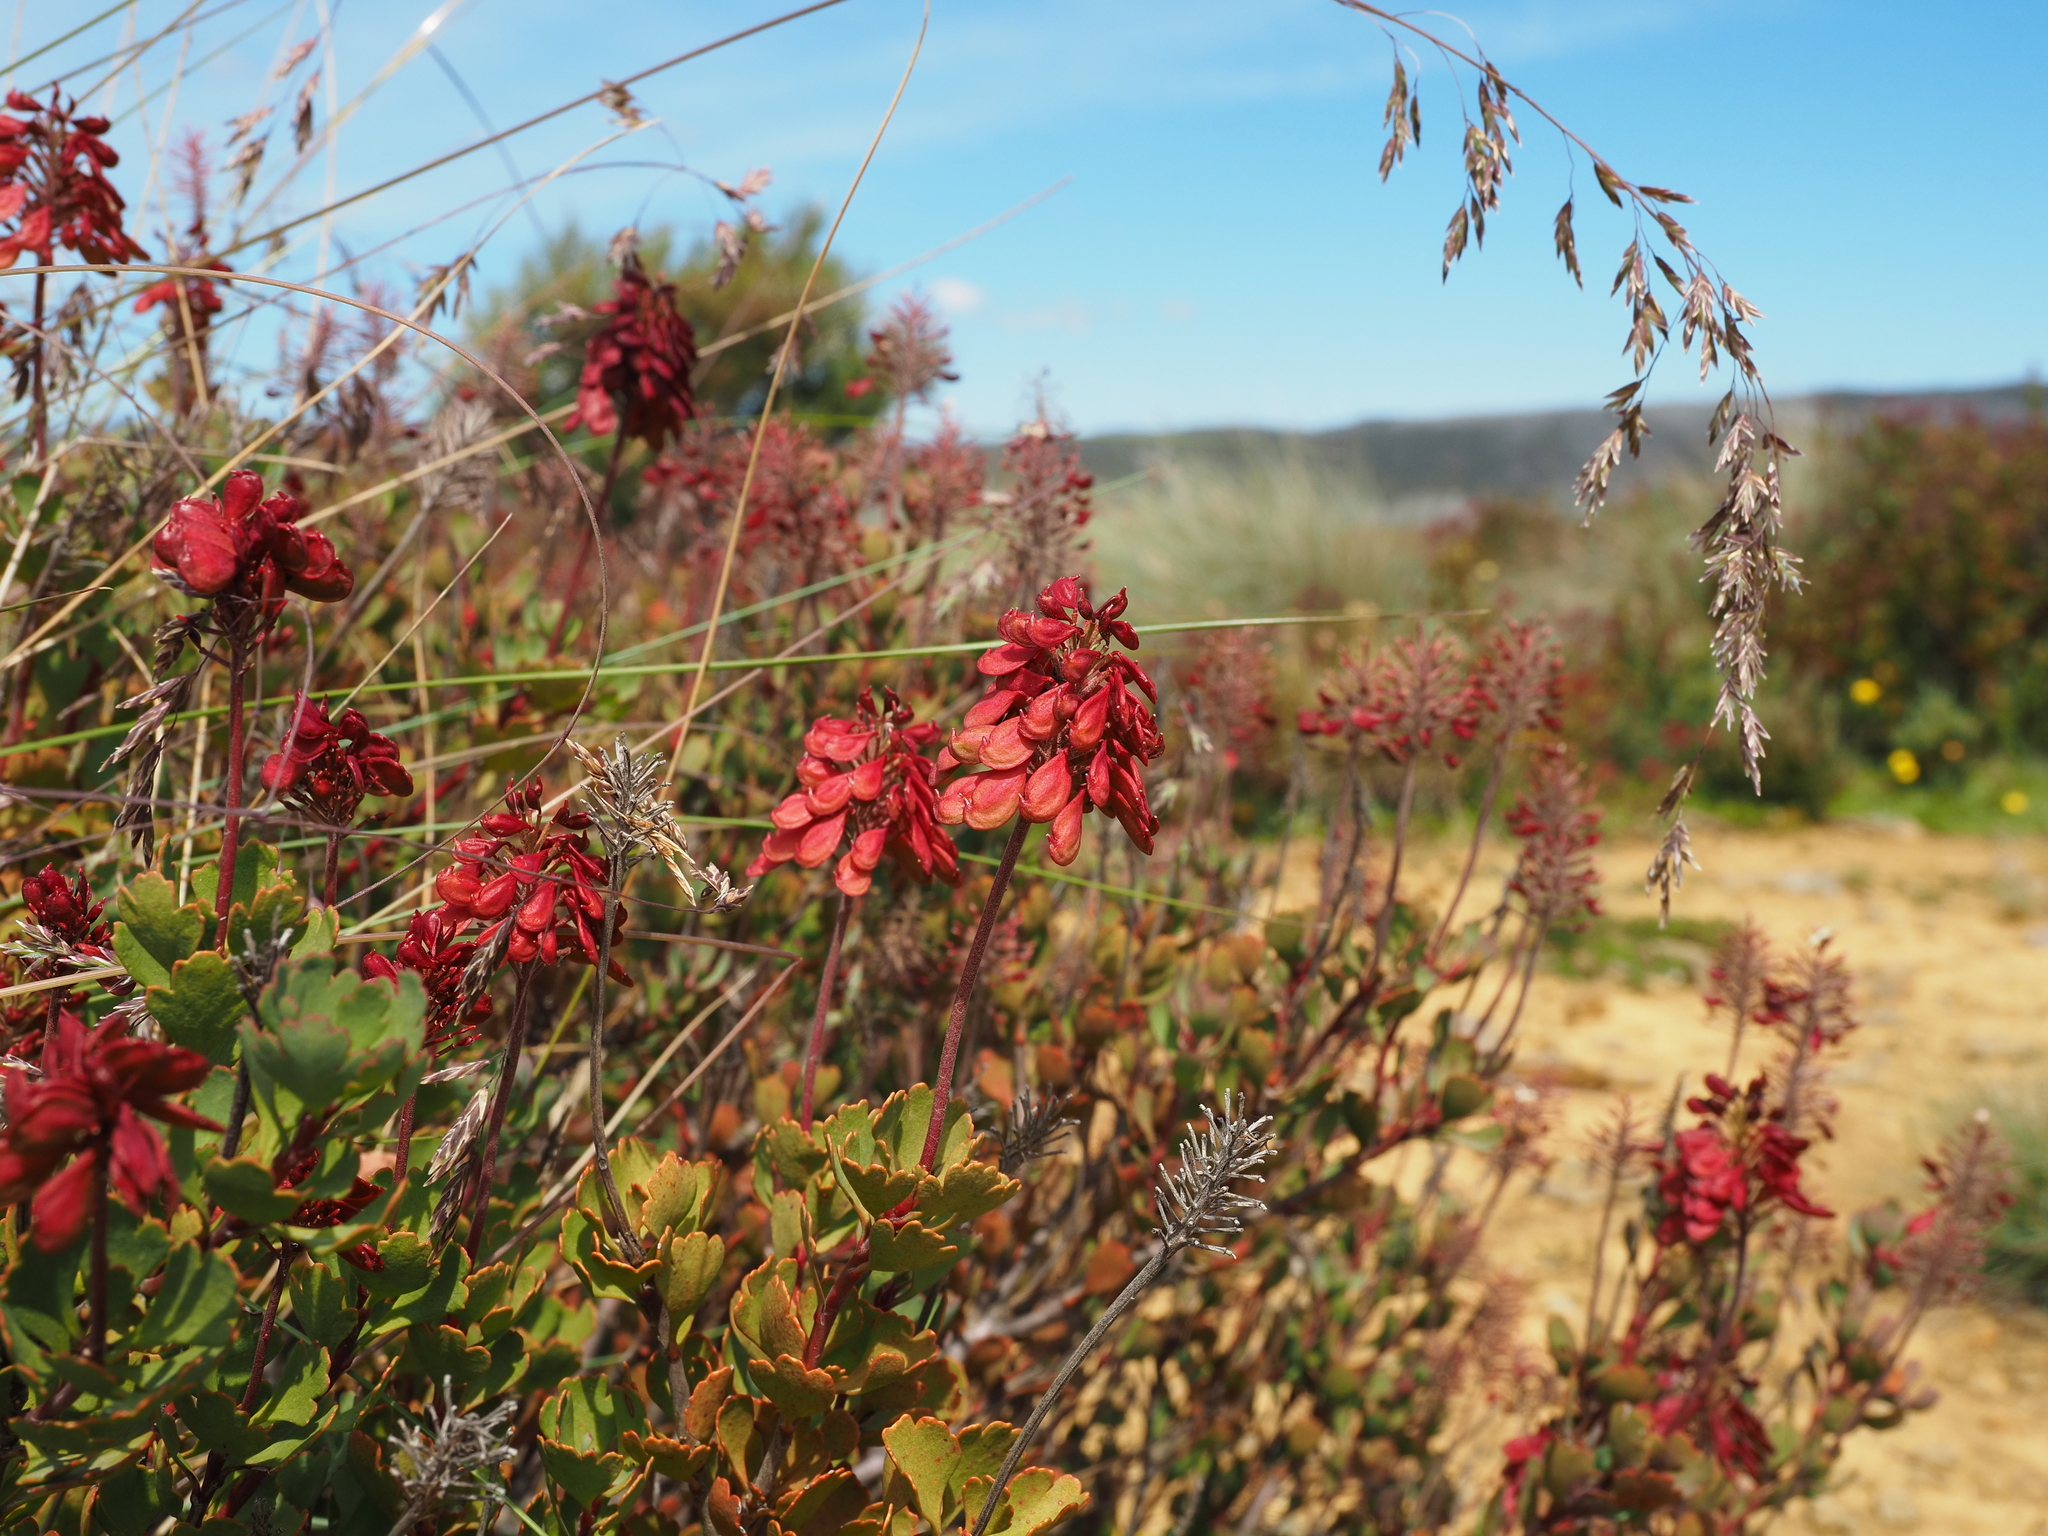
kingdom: Plantae
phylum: Tracheophyta
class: Magnoliopsida
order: Proteales
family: Proteaceae
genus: Bellendena
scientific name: Bellendena montana
